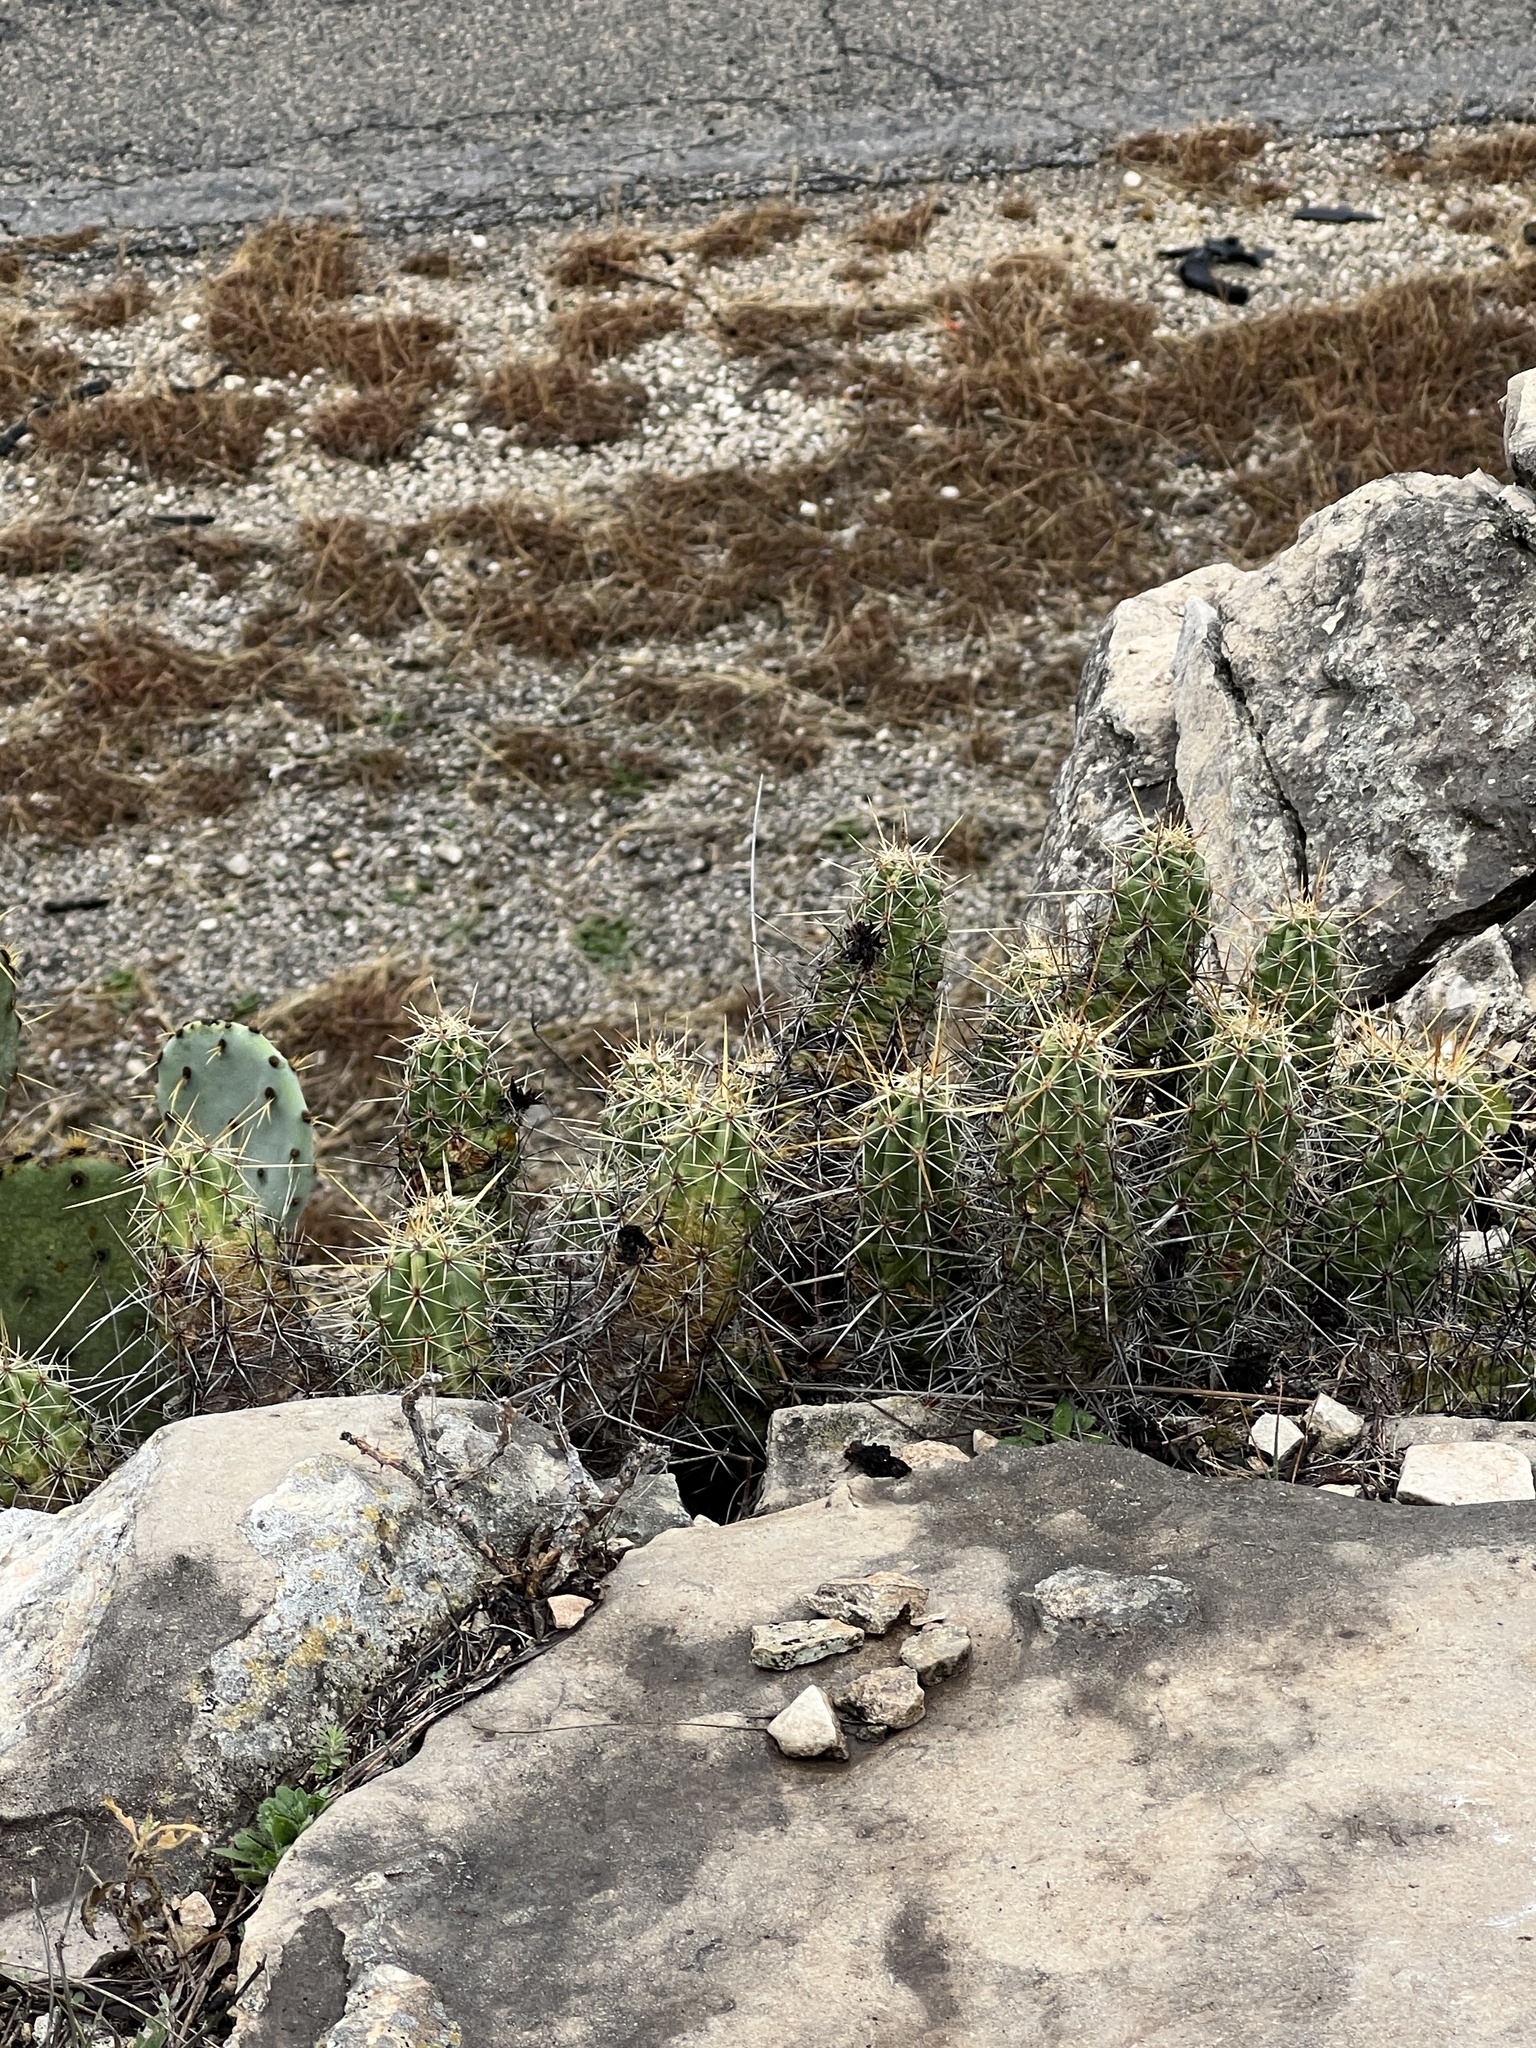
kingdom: Plantae
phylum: Tracheophyta
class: Magnoliopsida
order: Caryophyllales
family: Cactaceae
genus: Echinocereus
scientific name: Echinocereus enneacanthus
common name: Pitaya
